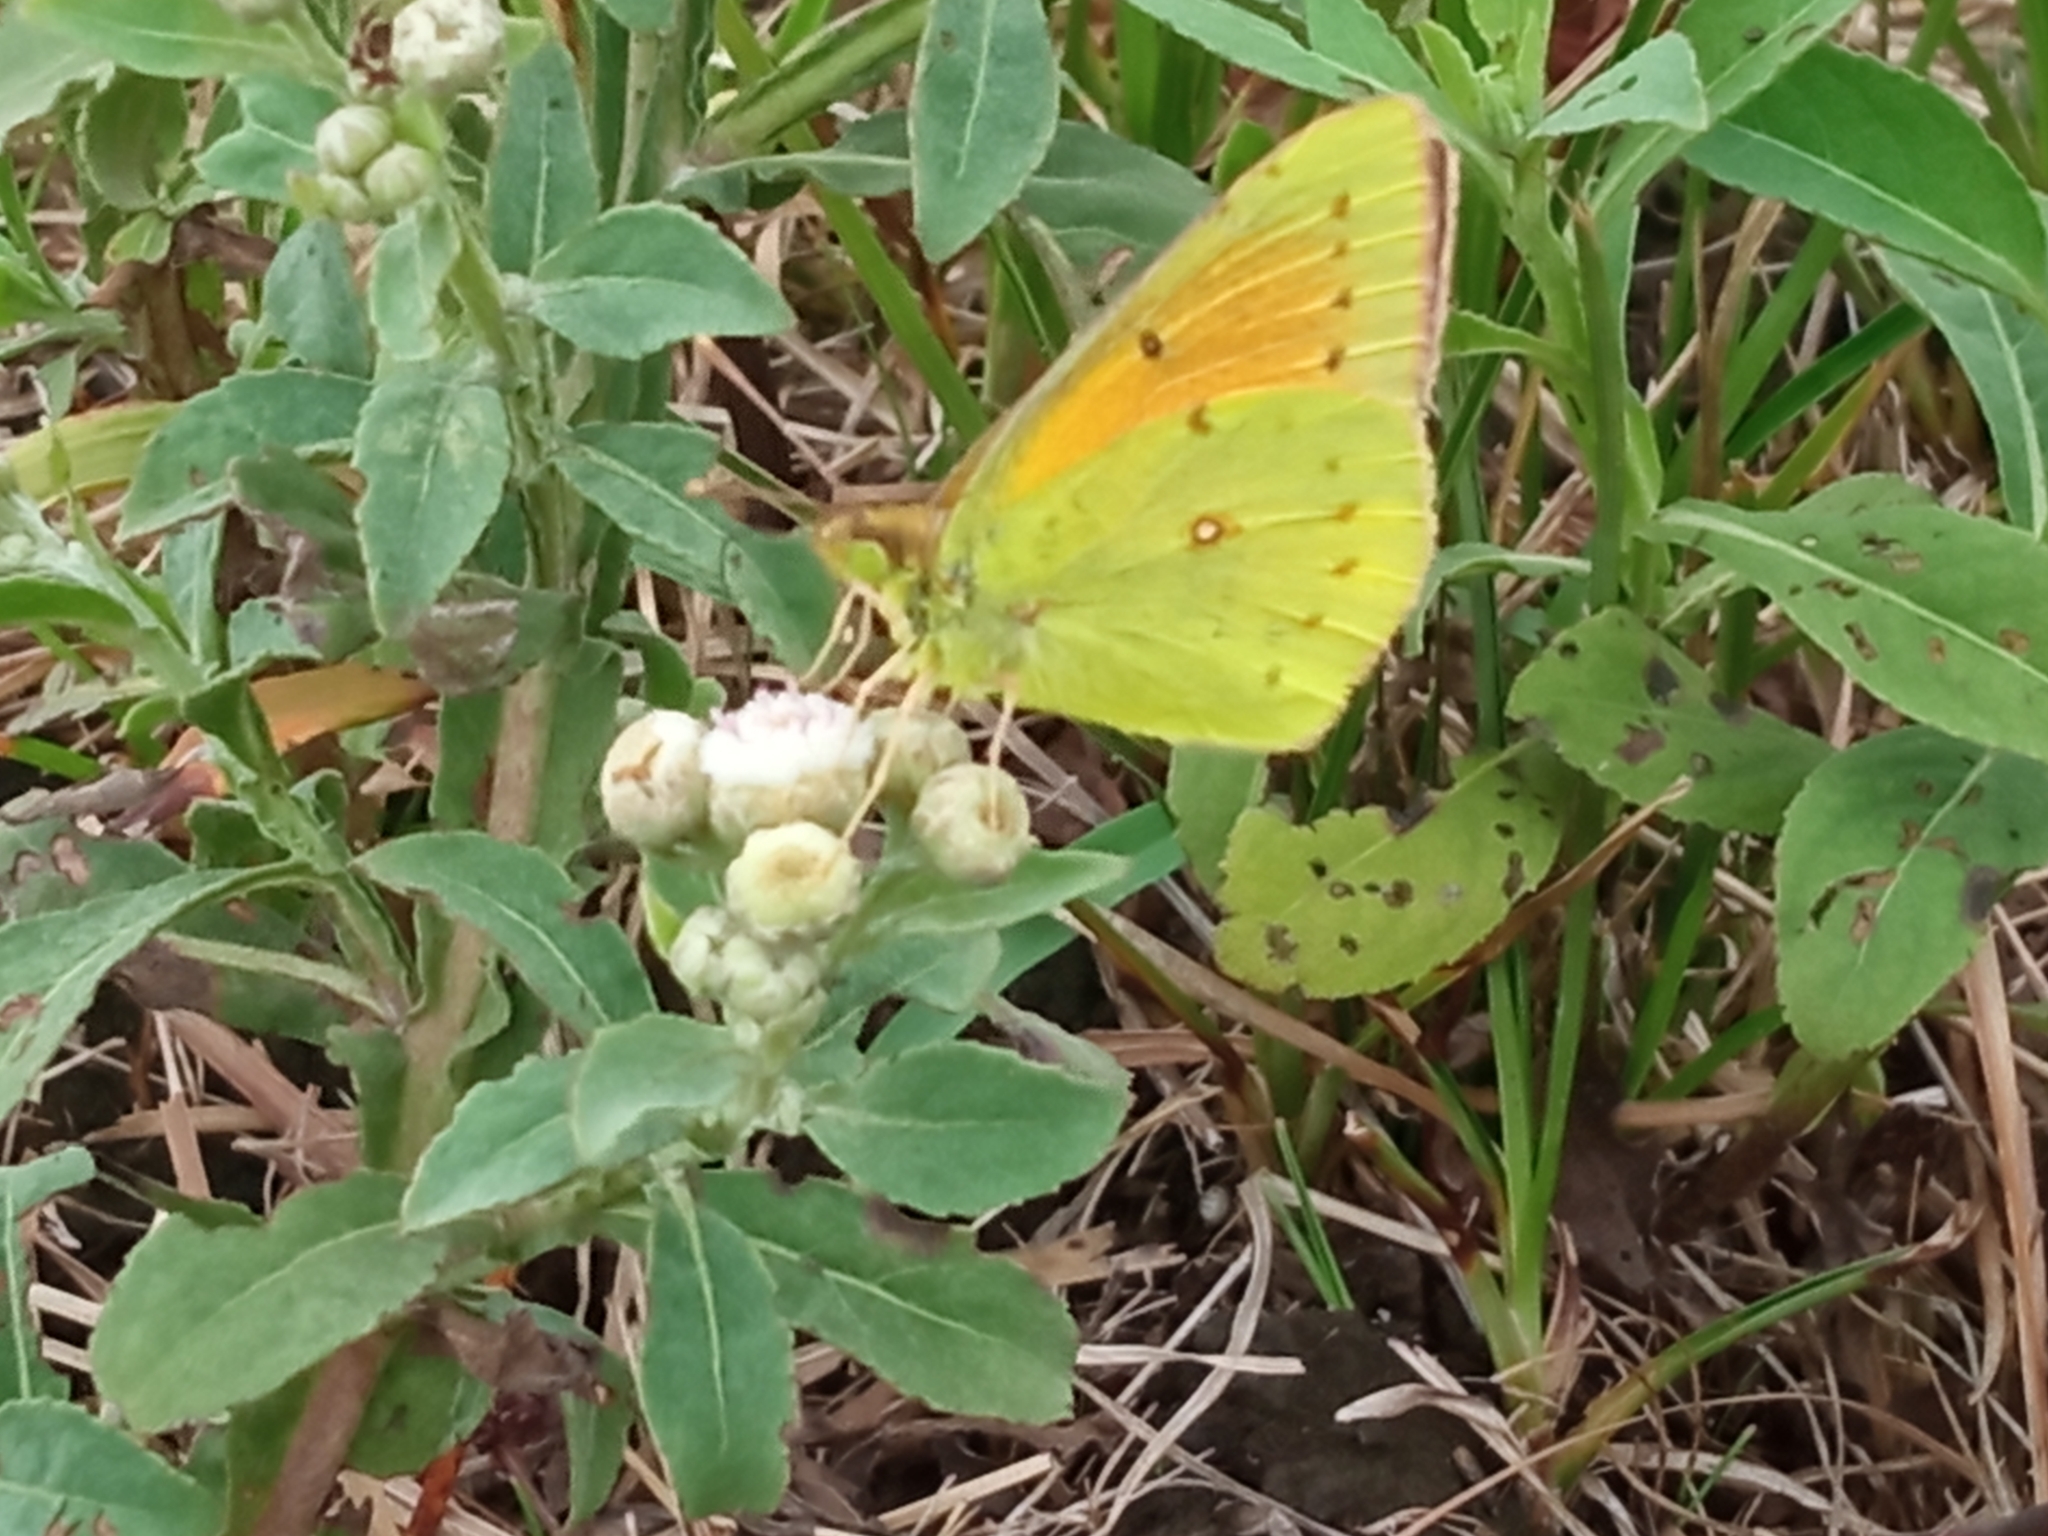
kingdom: Animalia
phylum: Arthropoda
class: Insecta
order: Lepidoptera
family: Pieridae
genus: Colias
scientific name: Colias lesbia
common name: Lesbia clouded yellow
